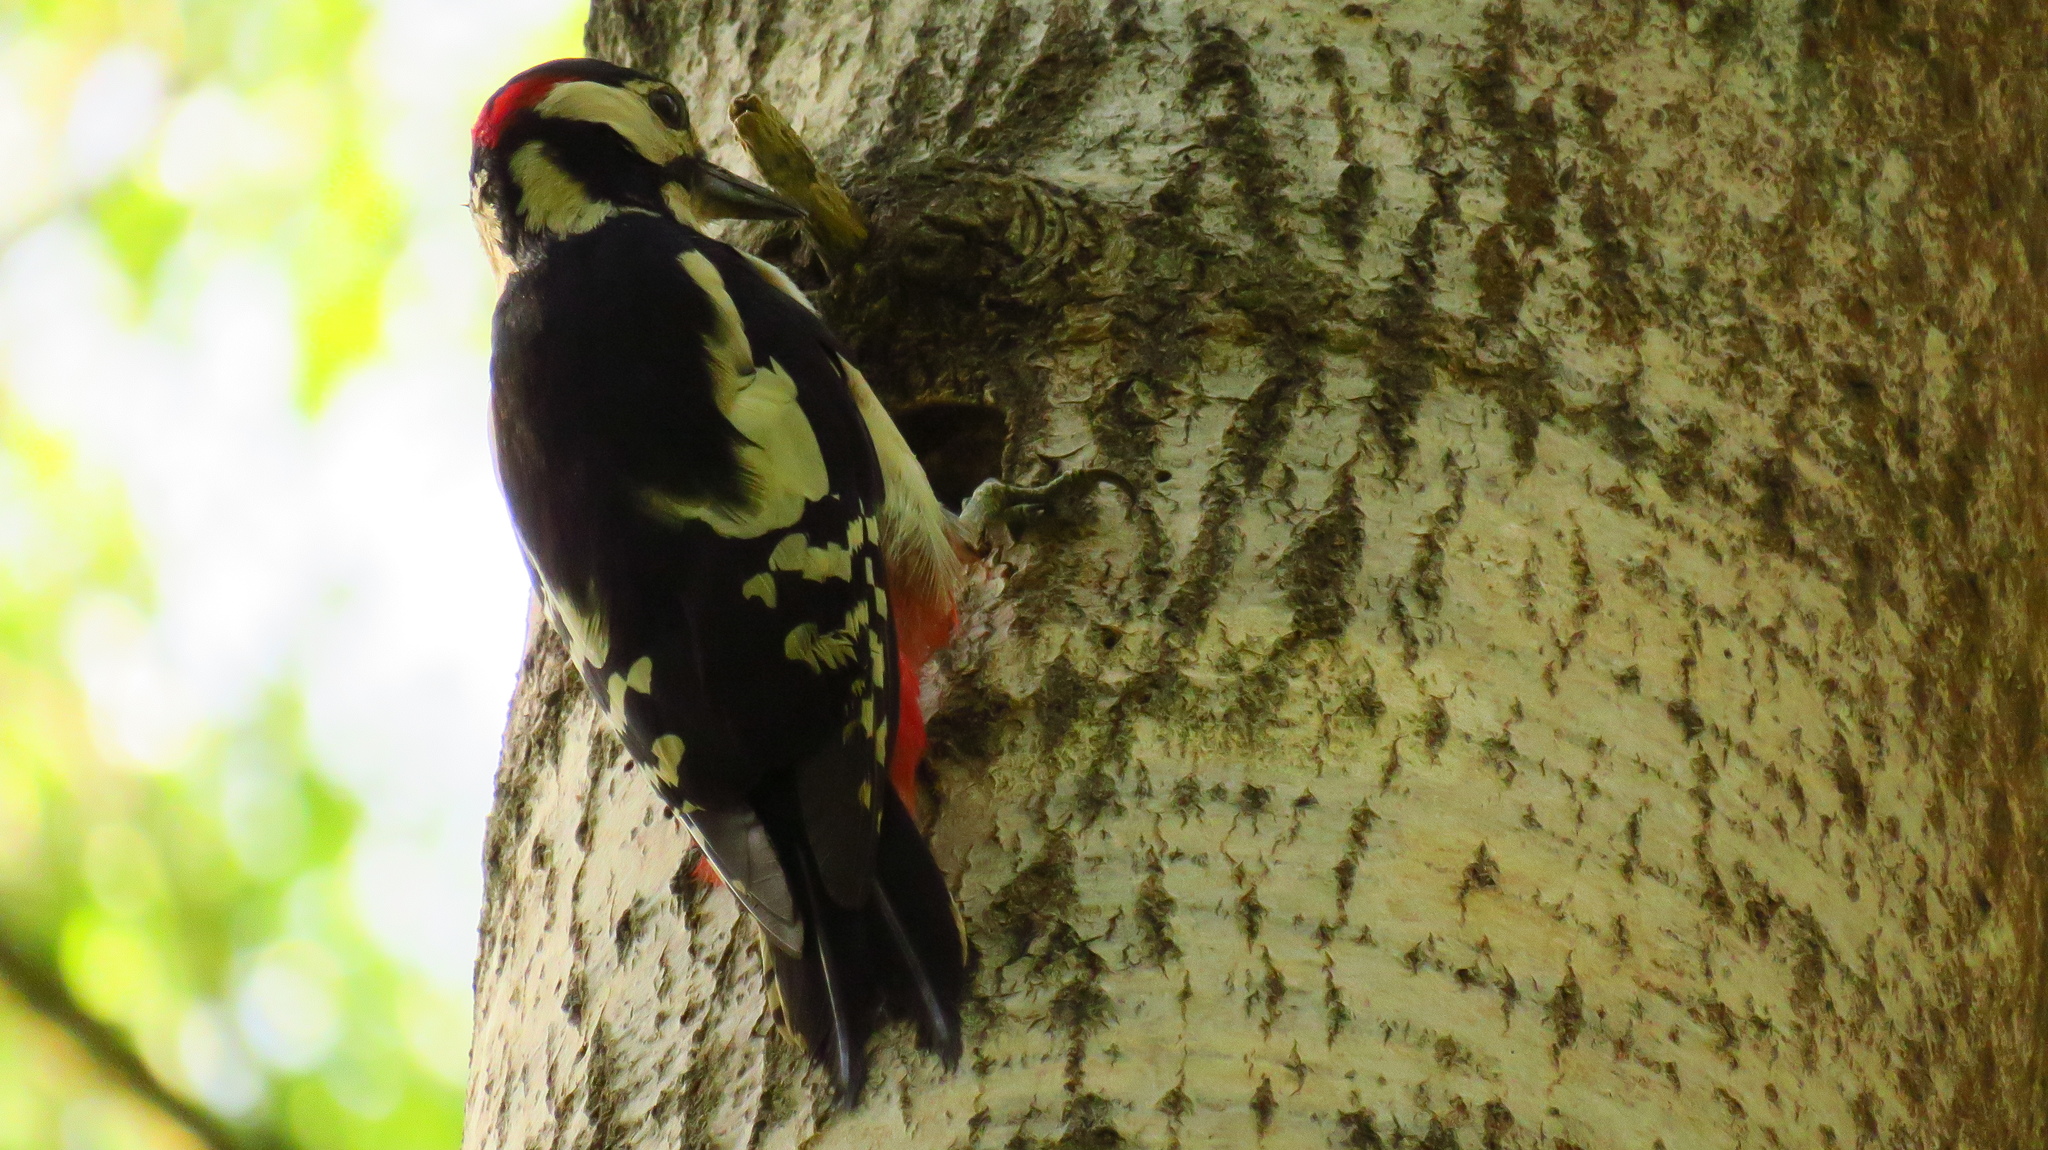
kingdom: Animalia
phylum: Chordata
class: Aves
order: Piciformes
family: Picidae
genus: Dendrocopos
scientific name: Dendrocopos major
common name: Great spotted woodpecker
